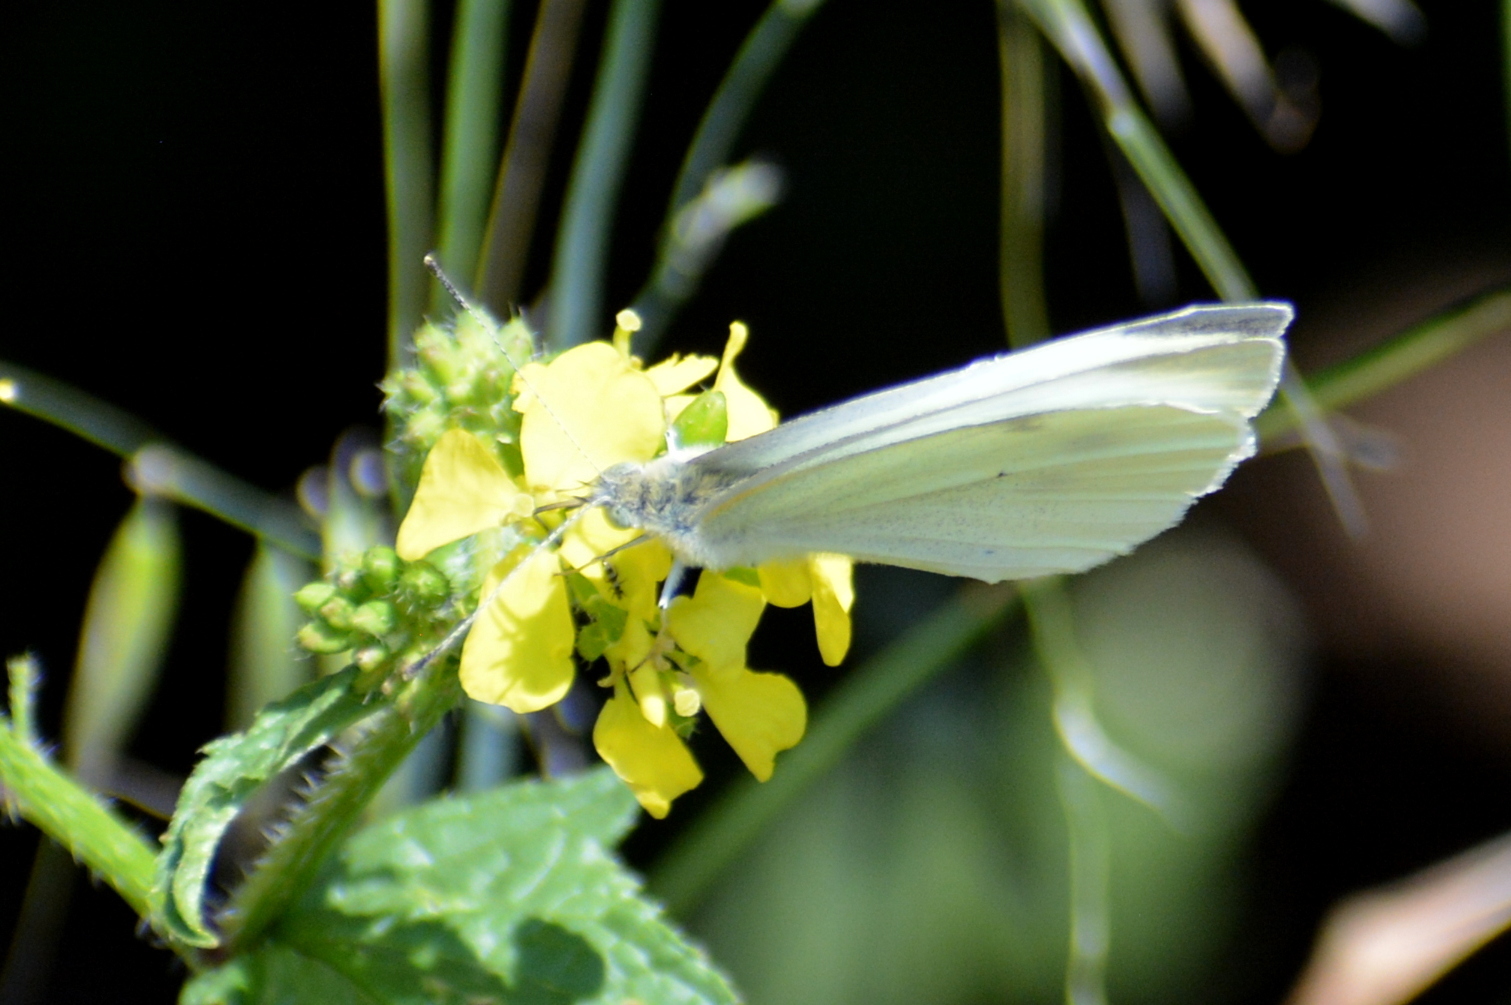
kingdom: Animalia
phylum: Arthropoda
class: Insecta
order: Lepidoptera
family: Pieridae
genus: Pieris
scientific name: Pieris rapae
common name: Small white
